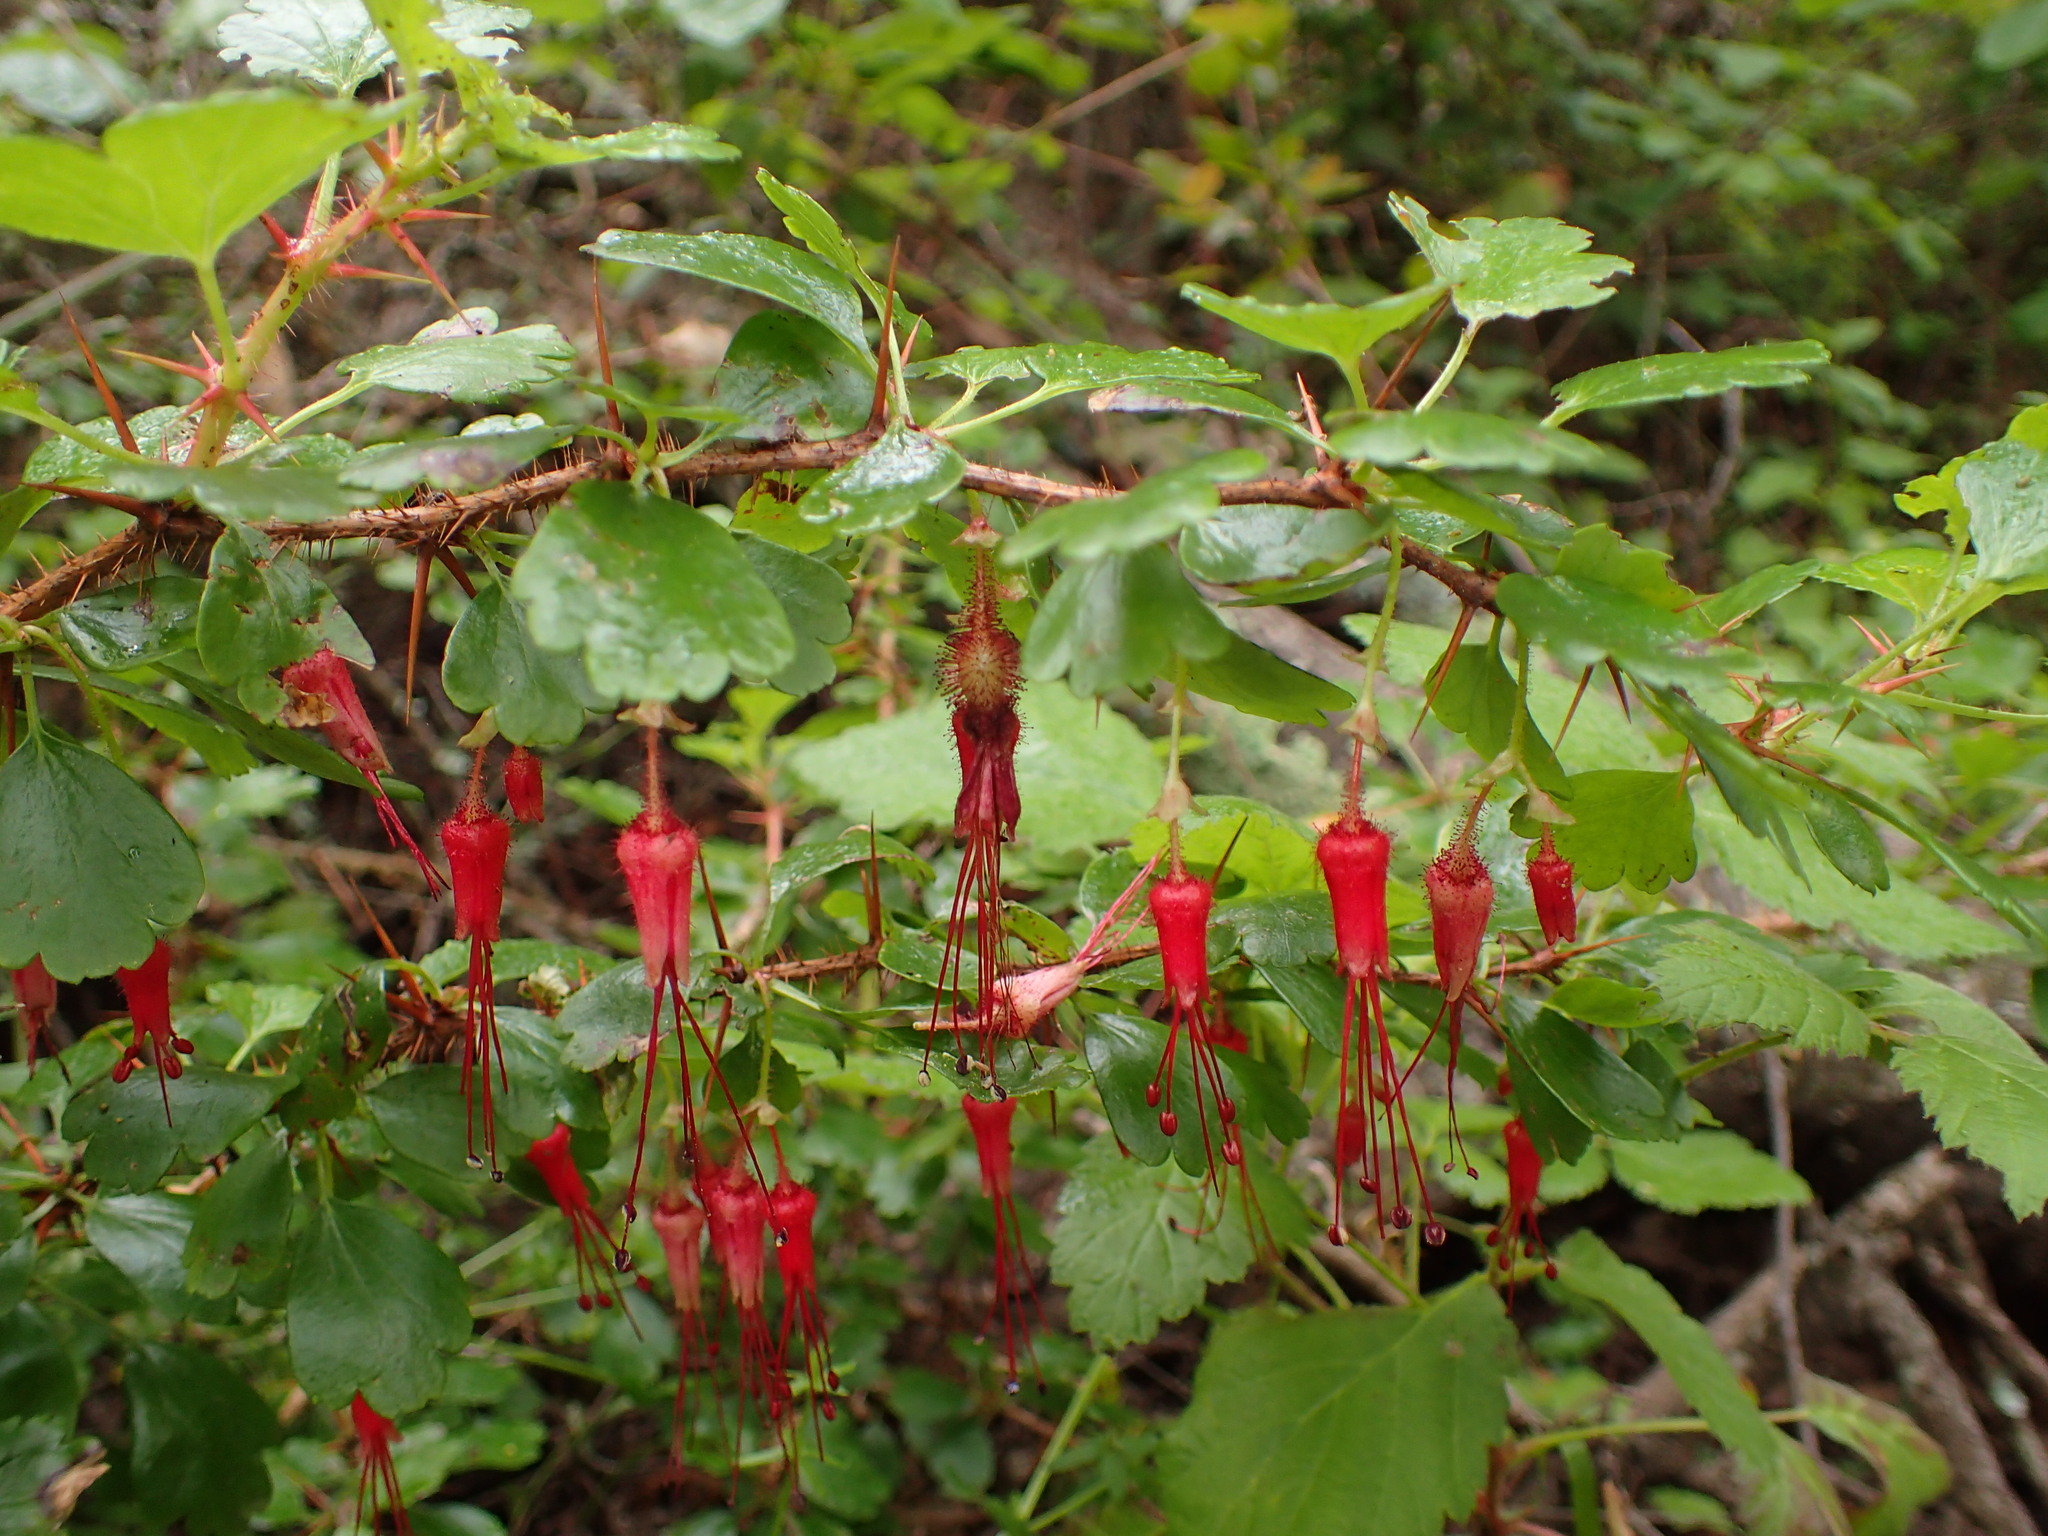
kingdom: Plantae
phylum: Tracheophyta
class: Magnoliopsida
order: Saxifragales
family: Grossulariaceae
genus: Ribes
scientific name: Ribes speciosum
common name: Fuchsia-flower gooseberry
